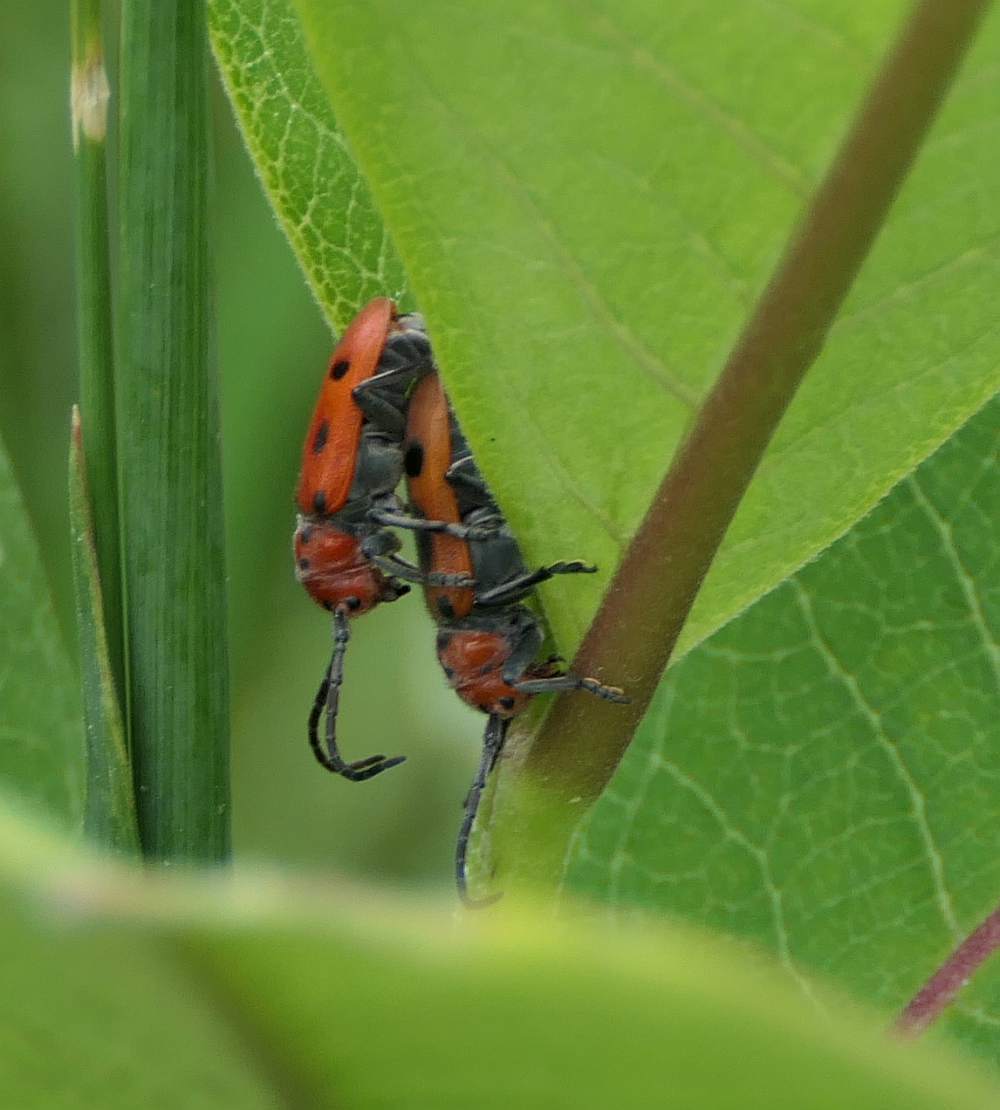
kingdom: Animalia
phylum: Arthropoda
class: Insecta
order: Coleoptera
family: Cerambycidae
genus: Tetraopes
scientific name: Tetraopes tetrophthalmus
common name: Red milkweed beetle
